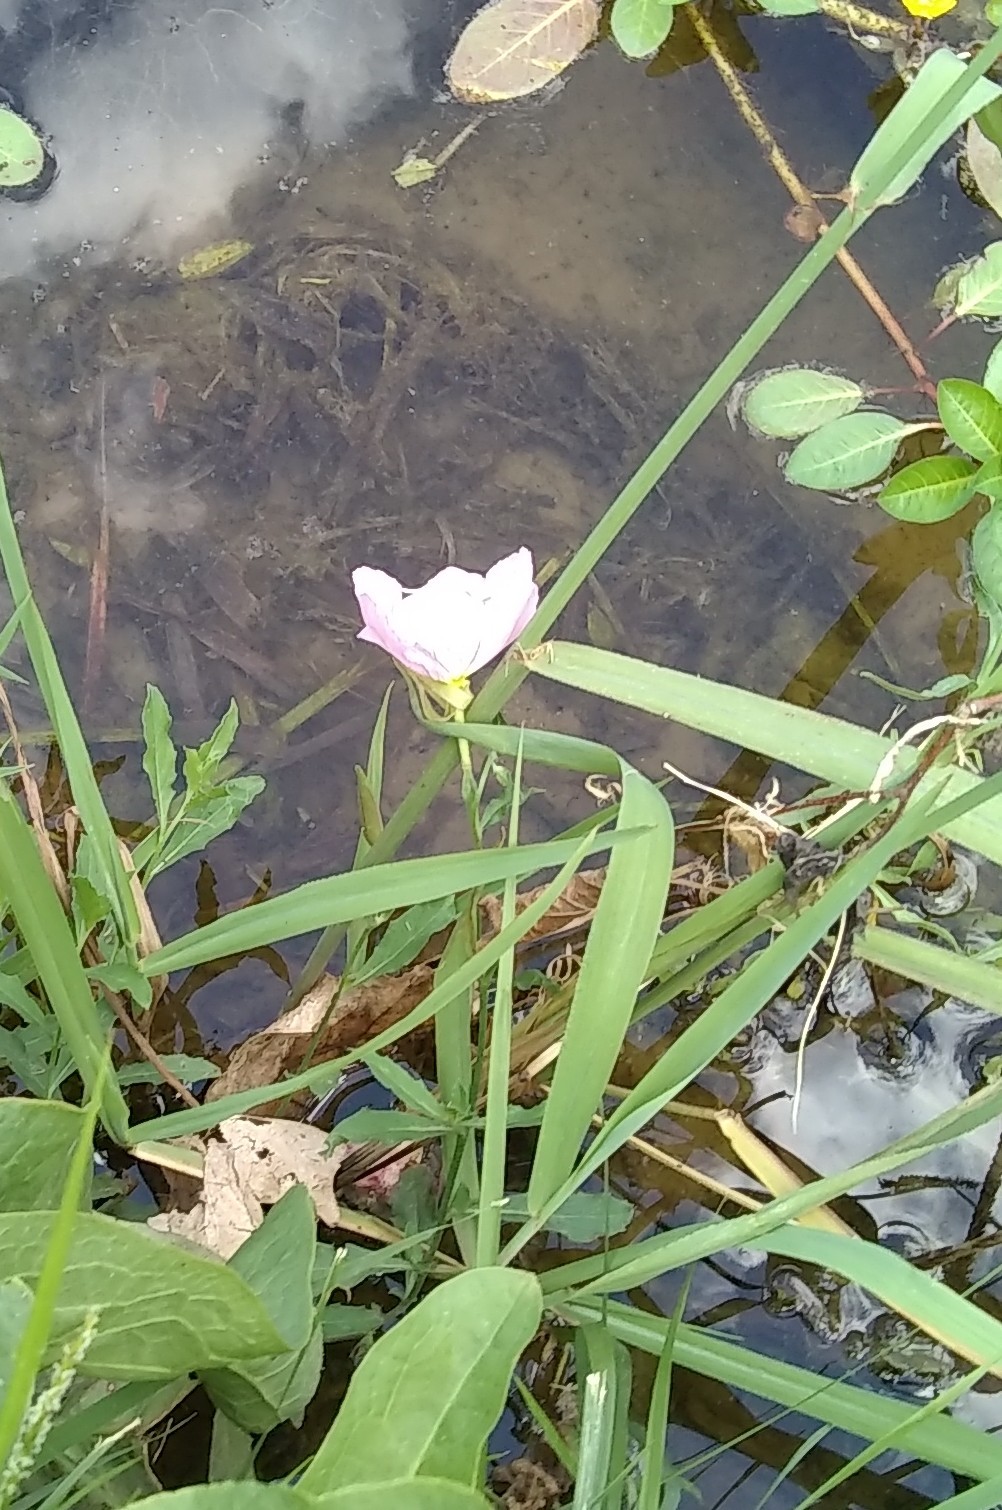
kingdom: Plantae
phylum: Tracheophyta
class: Magnoliopsida
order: Myrtales
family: Onagraceae
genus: Oenothera
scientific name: Oenothera speciosa
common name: White evening-primrose
